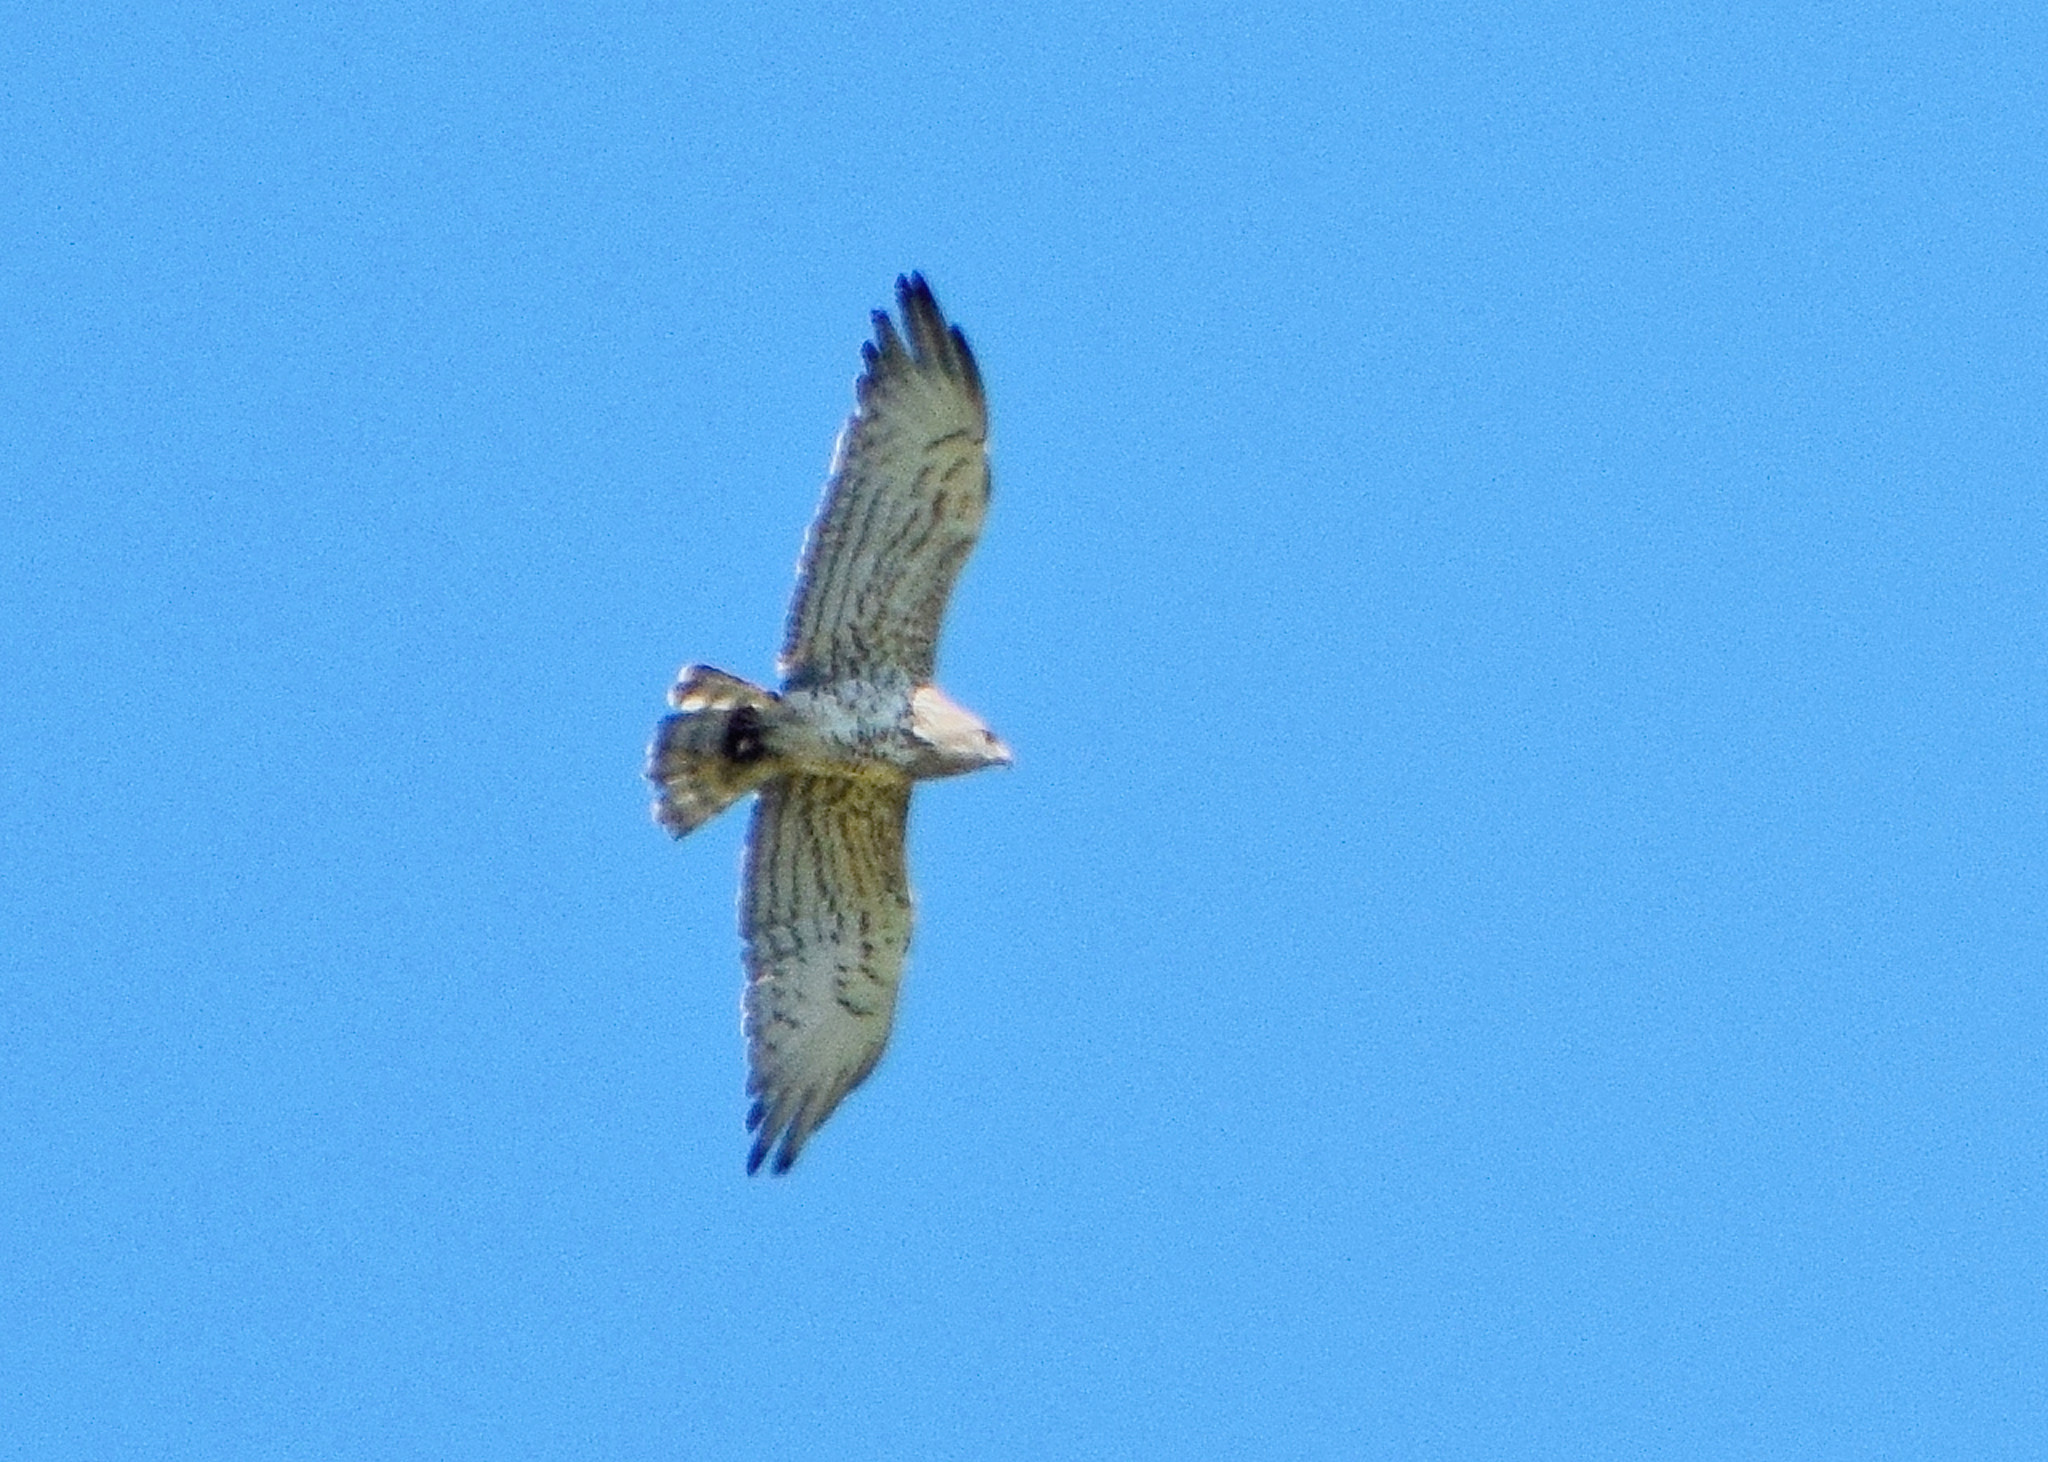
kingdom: Animalia
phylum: Chordata
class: Aves
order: Accipitriformes
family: Accipitridae
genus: Circaetus
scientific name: Circaetus gallicus
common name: Short-toed snake eagle
